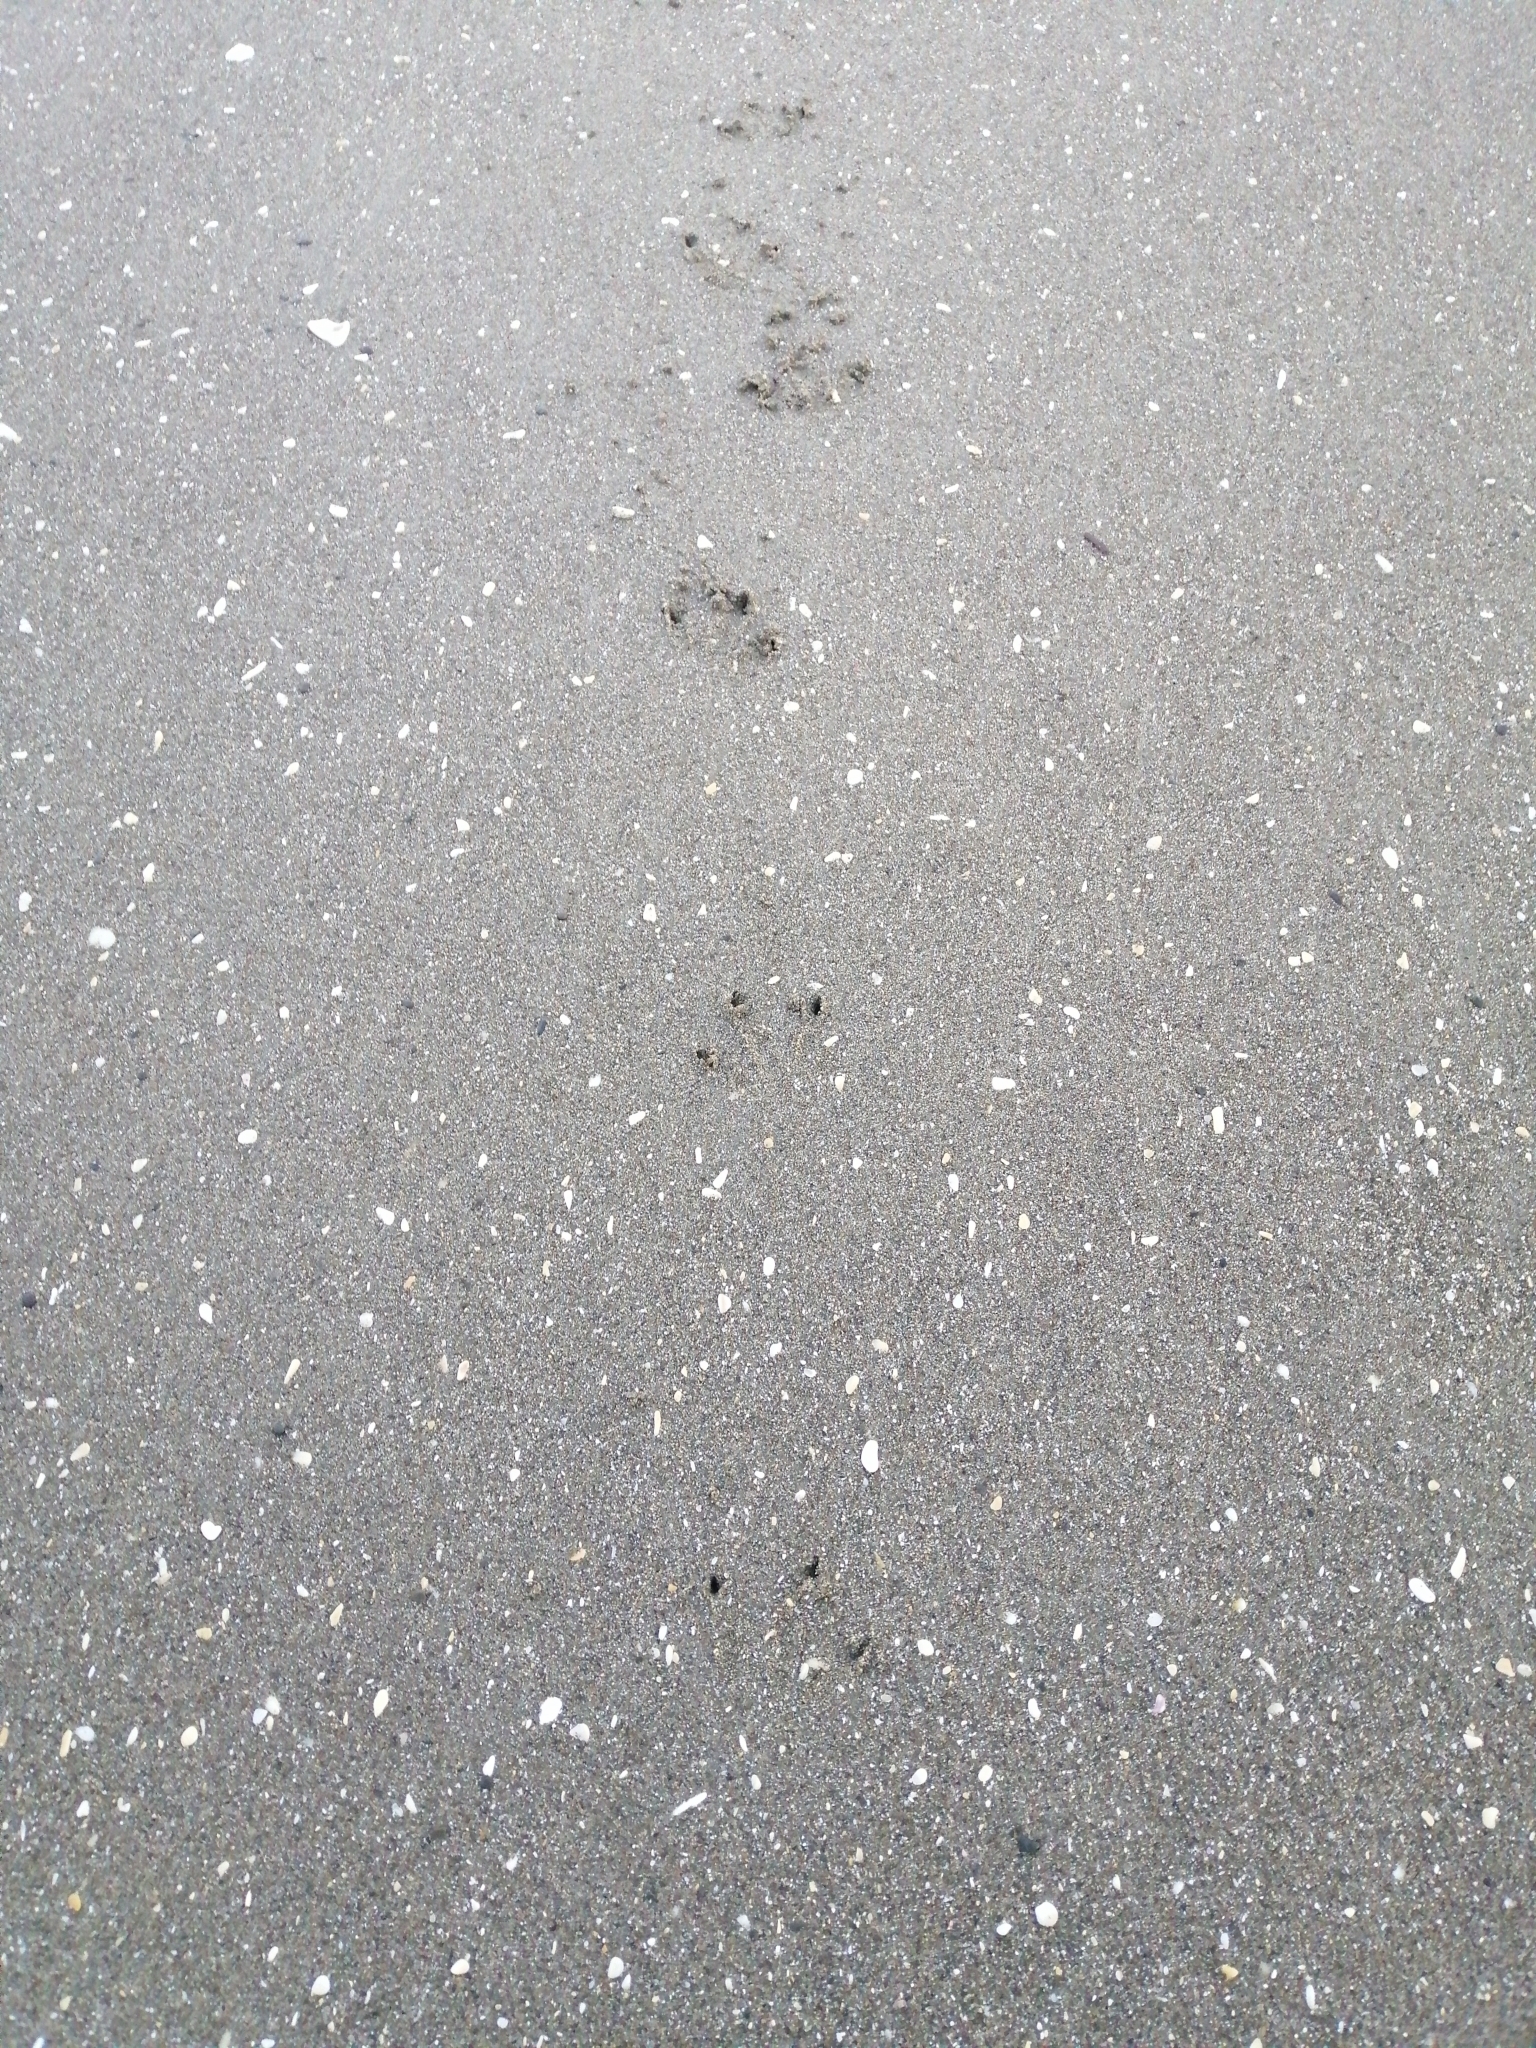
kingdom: Animalia
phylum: Chordata
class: Aves
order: Sphenisciformes
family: Spheniscidae
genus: Eudyptula
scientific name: Eudyptula minor
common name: Little penguin
